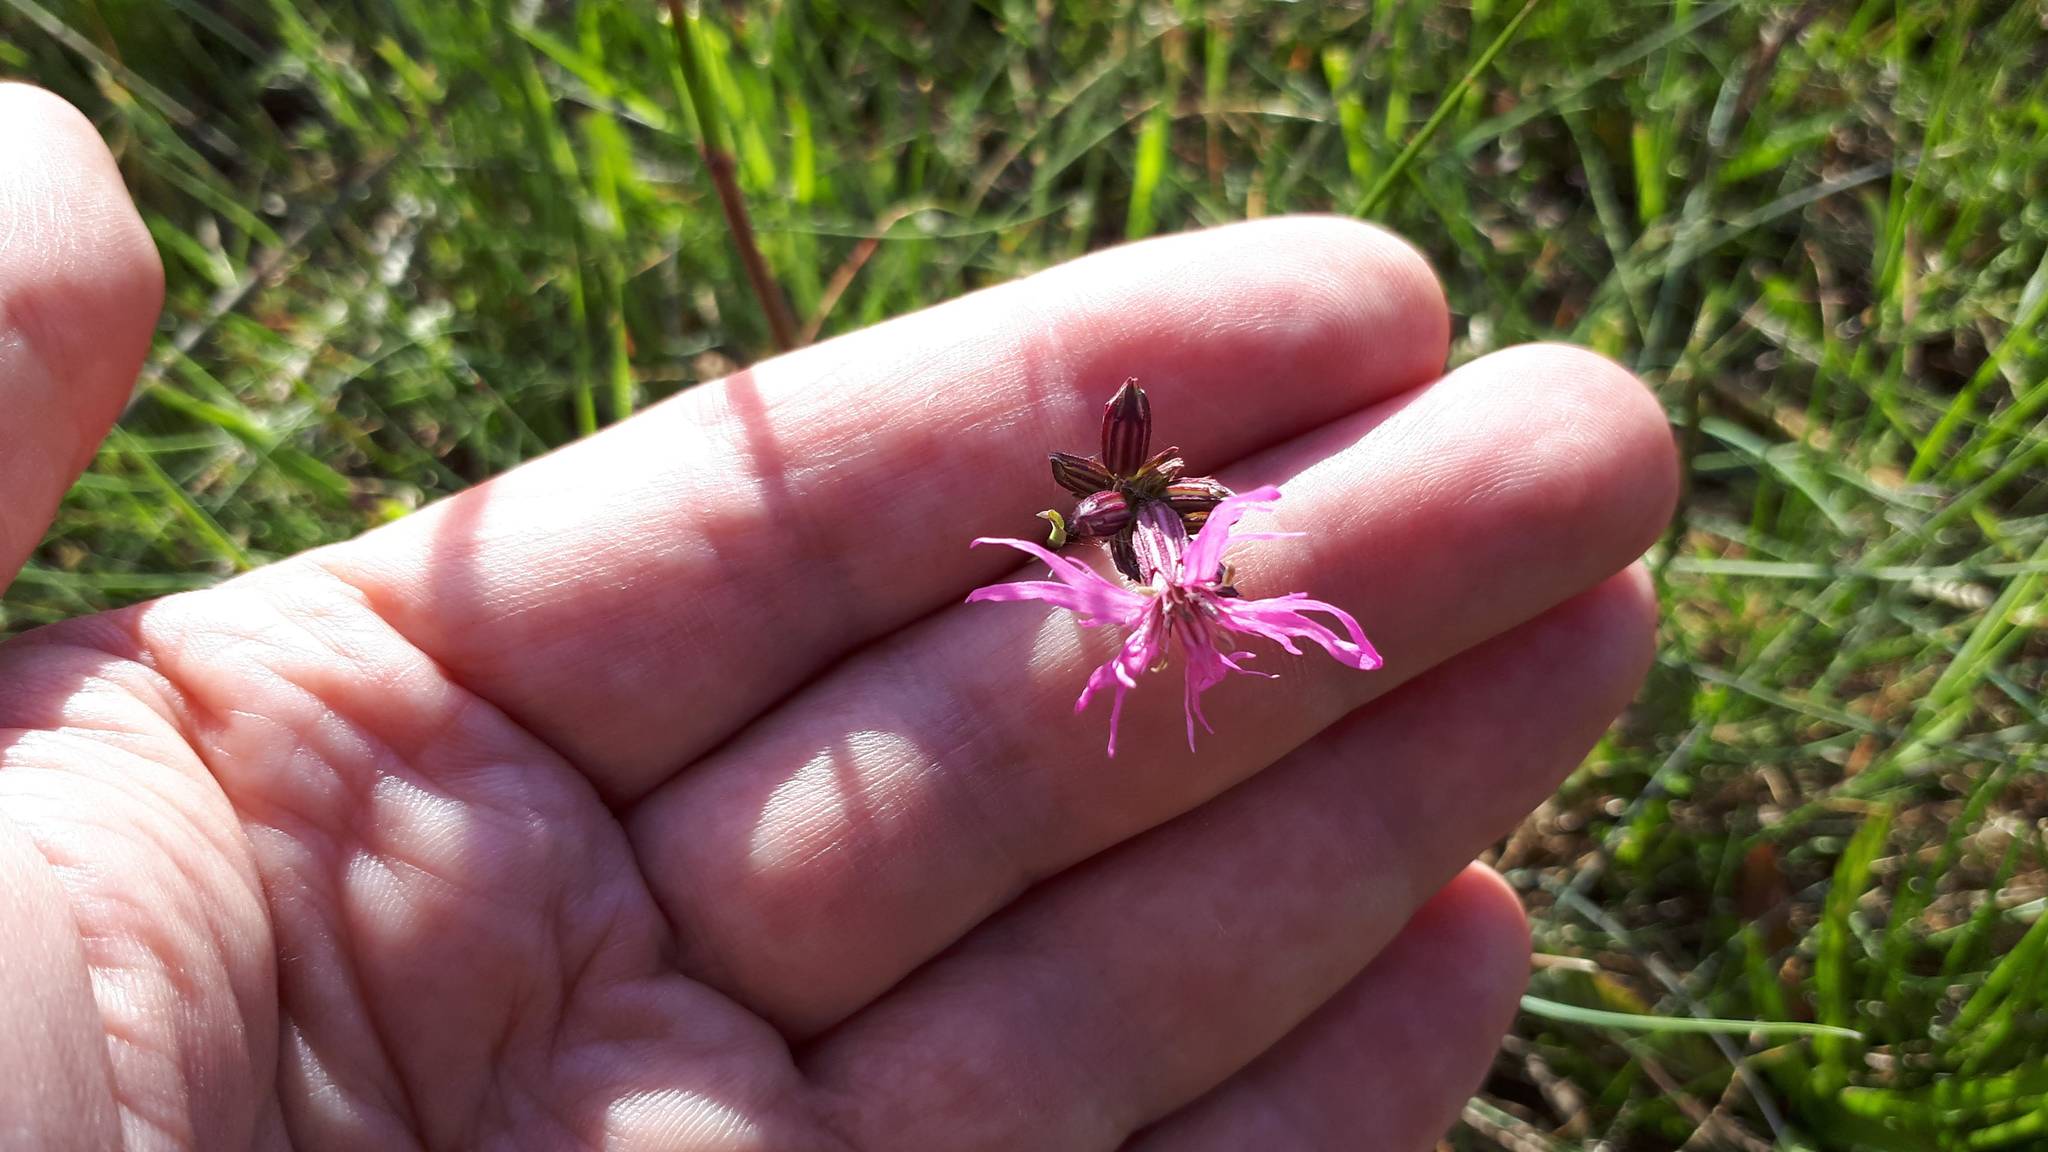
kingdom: Plantae
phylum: Tracheophyta
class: Magnoliopsida
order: Caryophyllales
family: Caryophyllaceae
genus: Silene
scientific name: Silene flos-cuculi
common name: Ragged-robin
